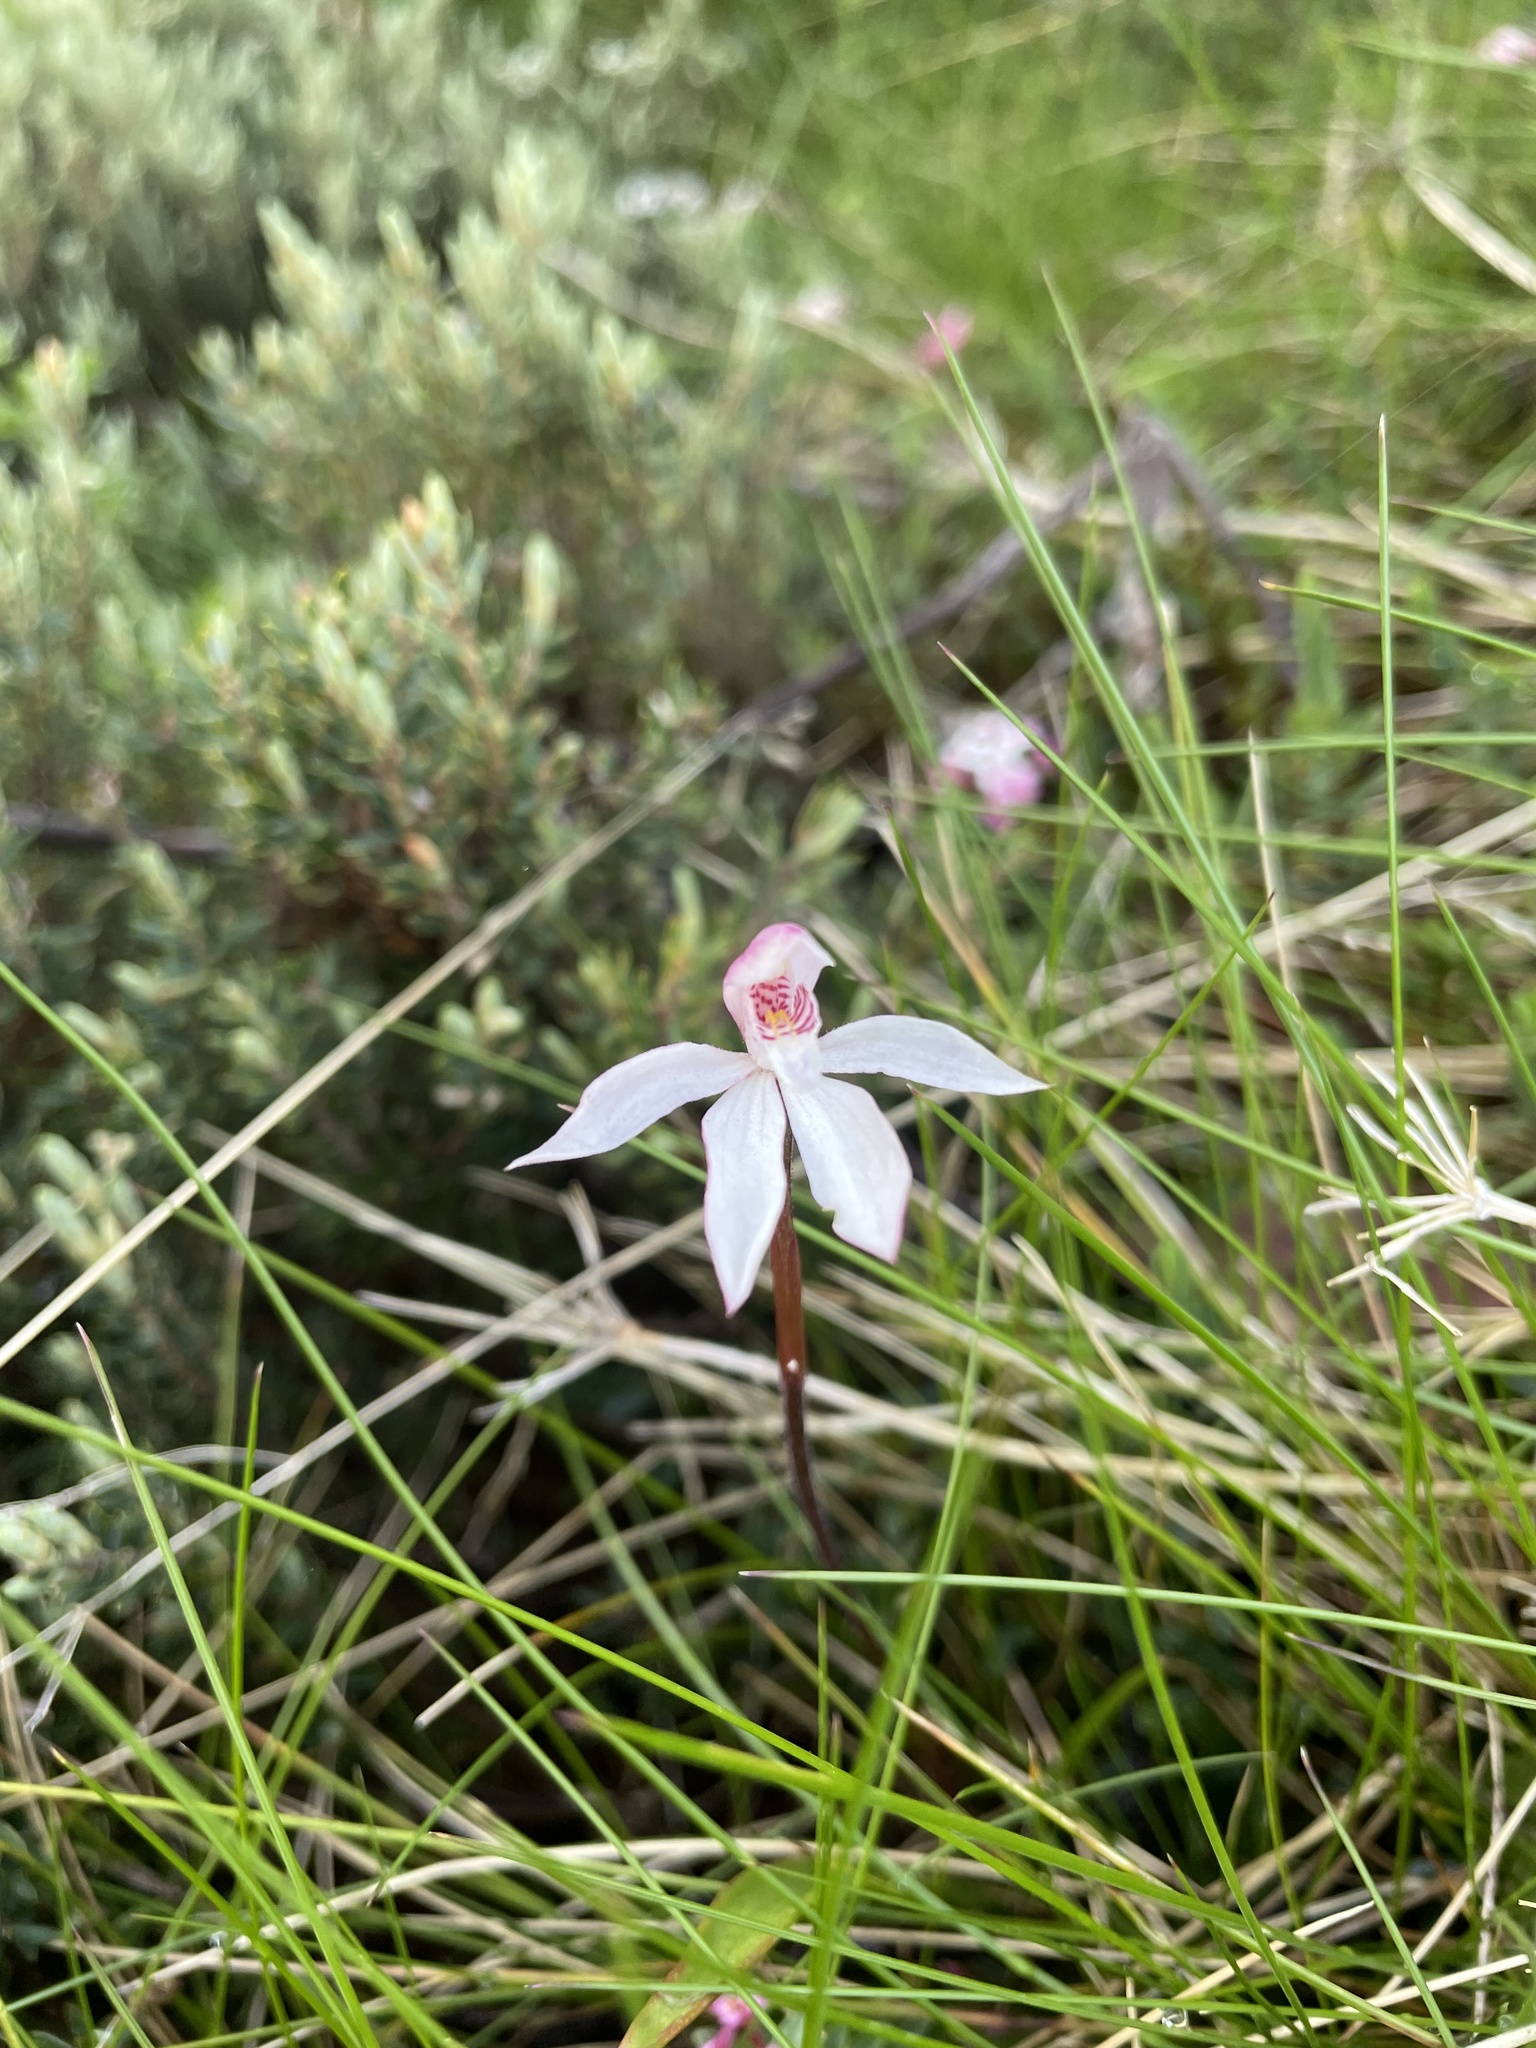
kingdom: Plantae
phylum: Tracheophyta
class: Liliopsida
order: Asparagales
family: Orchidaceae
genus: Caladenia
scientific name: Caladenia alpina
